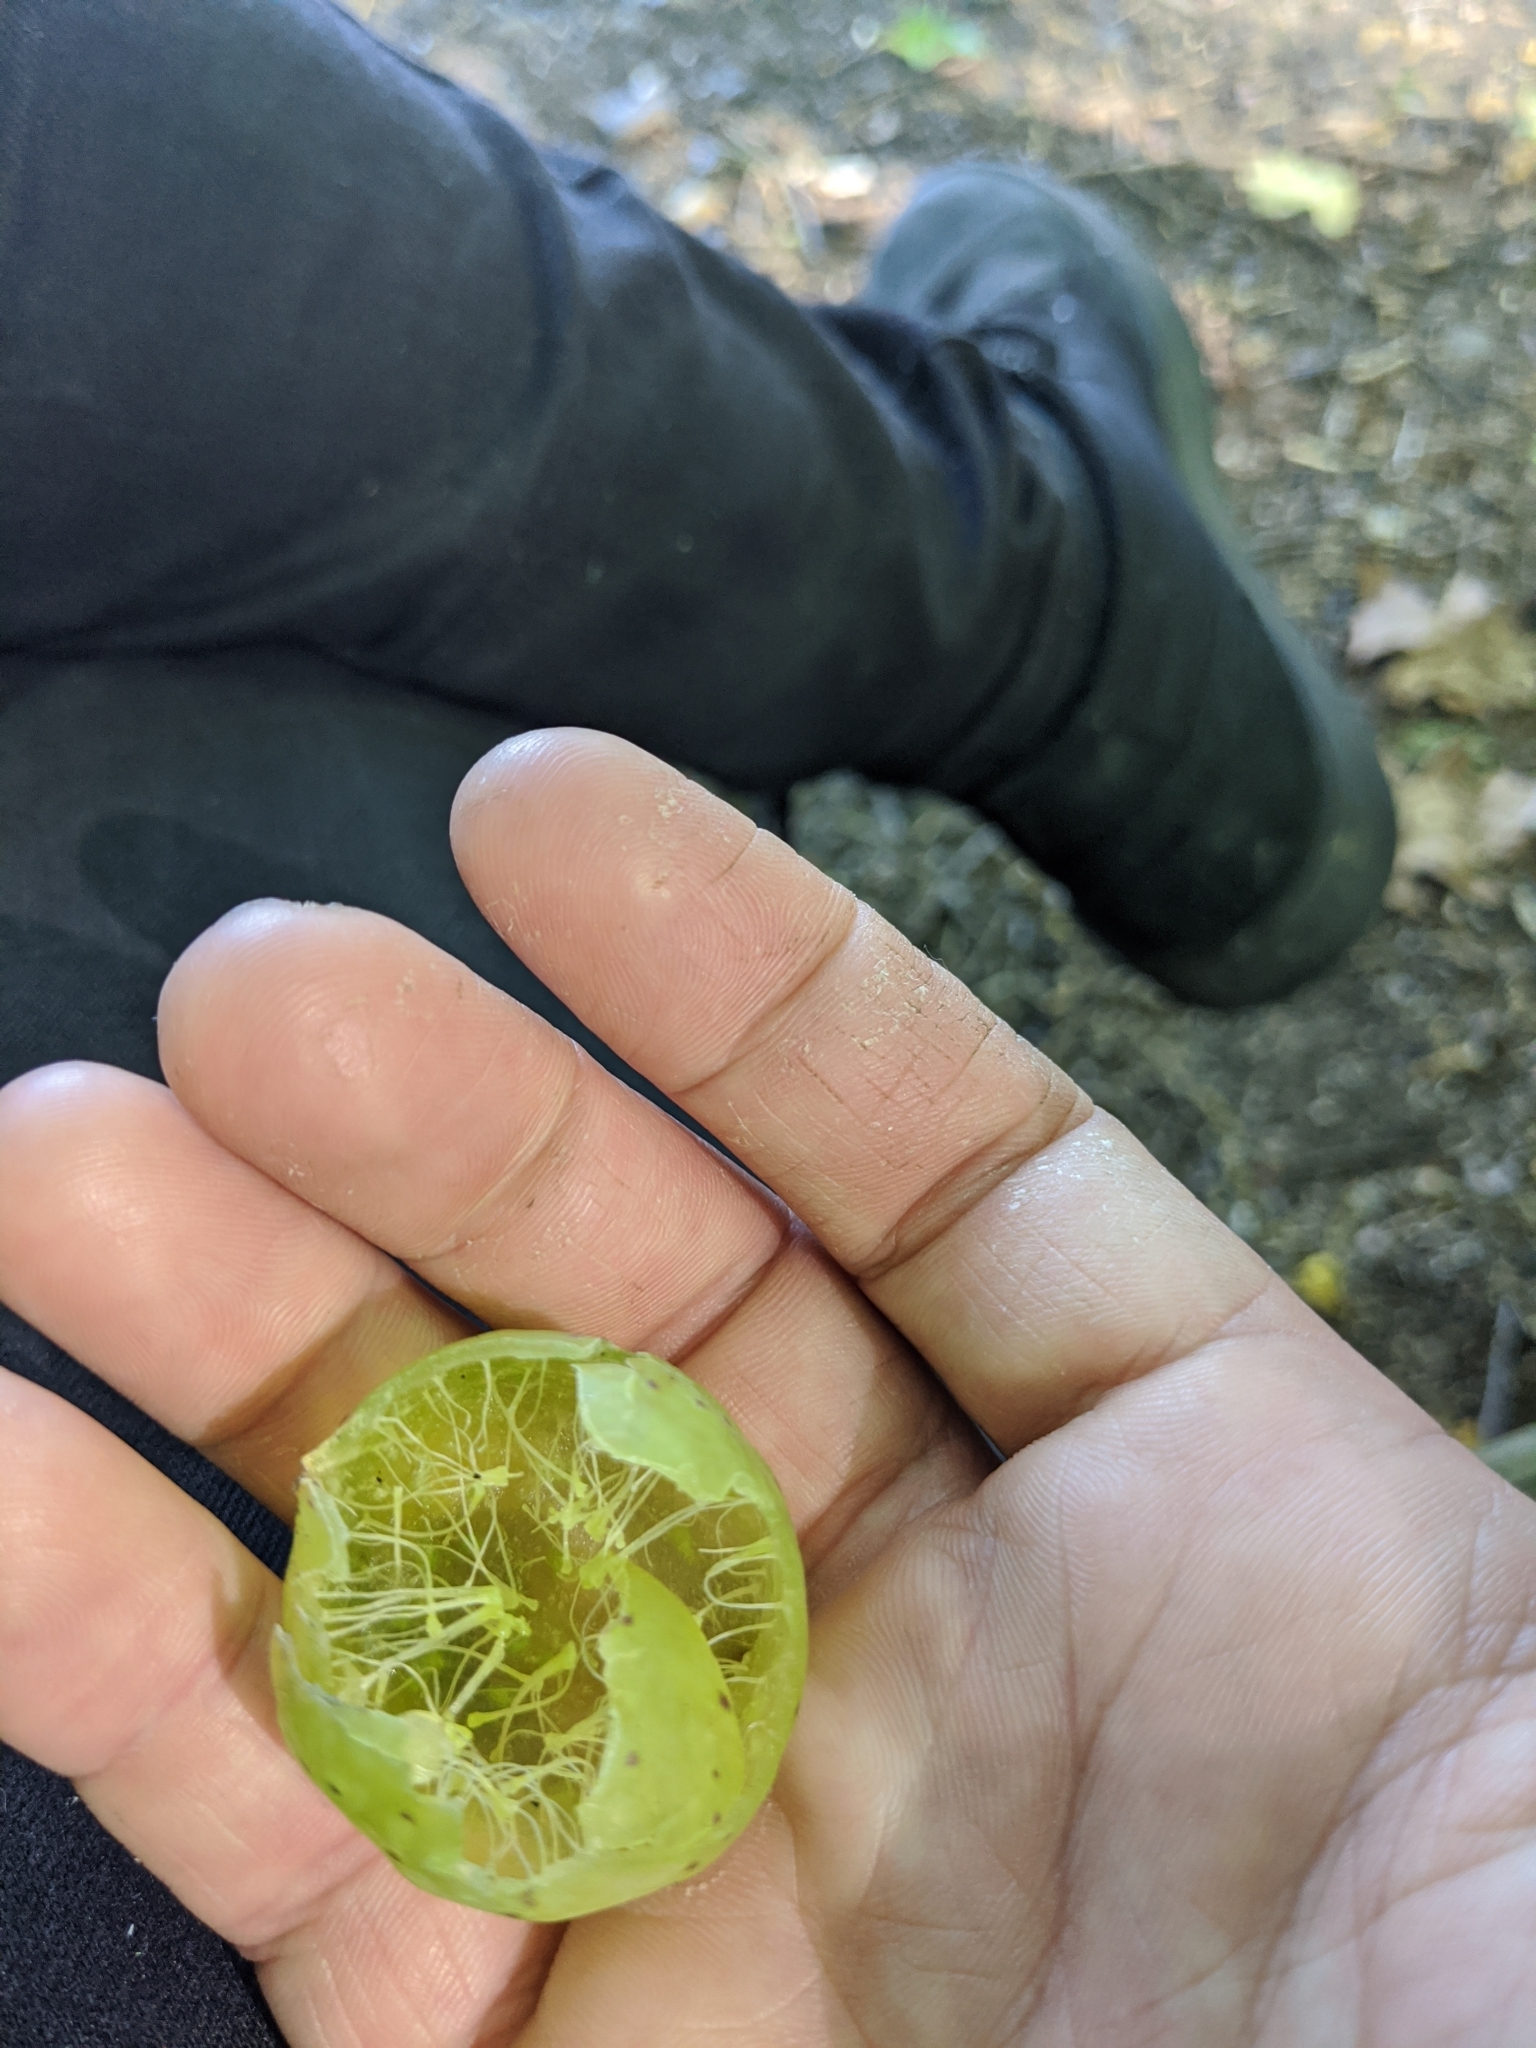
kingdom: Animalia
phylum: Arthropoda
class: Insecta
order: Hymenoptera
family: Cynipidae
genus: Amphibolips
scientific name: Amphibolips
